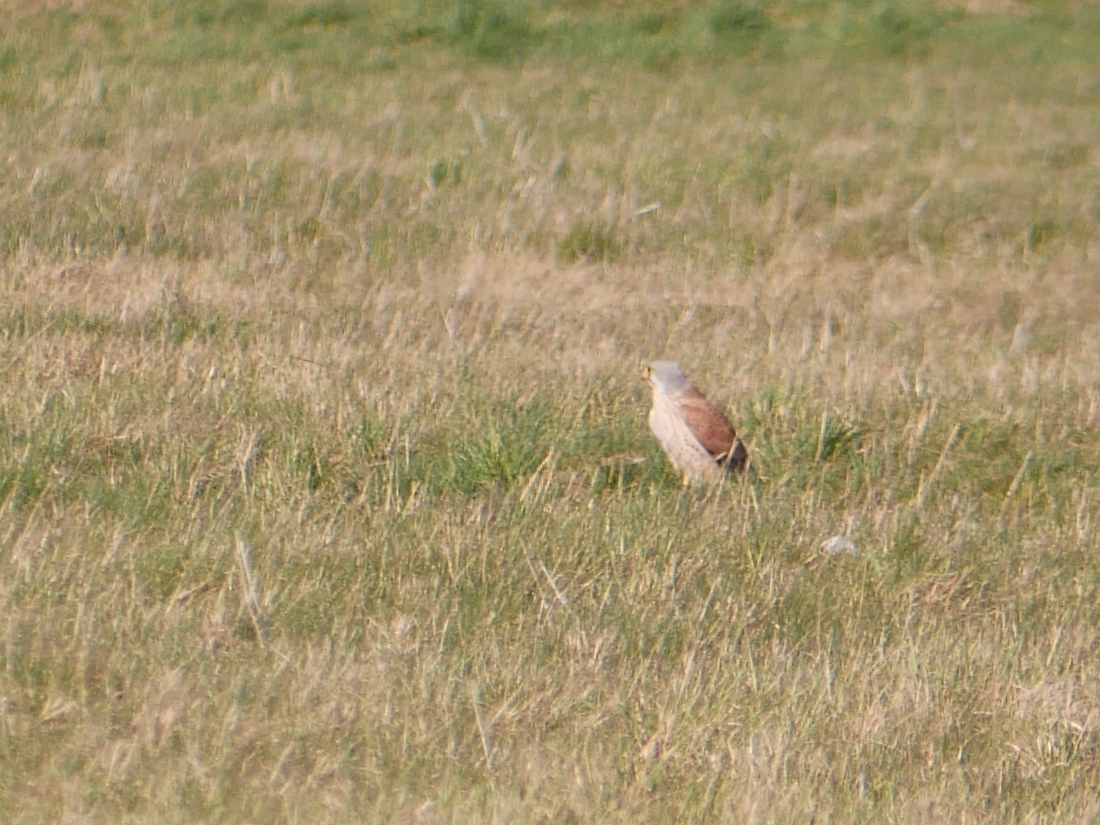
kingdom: Animalia
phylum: Chordata
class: Aves
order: Falconiformes
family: Falconidae
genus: Falco
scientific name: Falco tinnunculus
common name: Common kestrel
